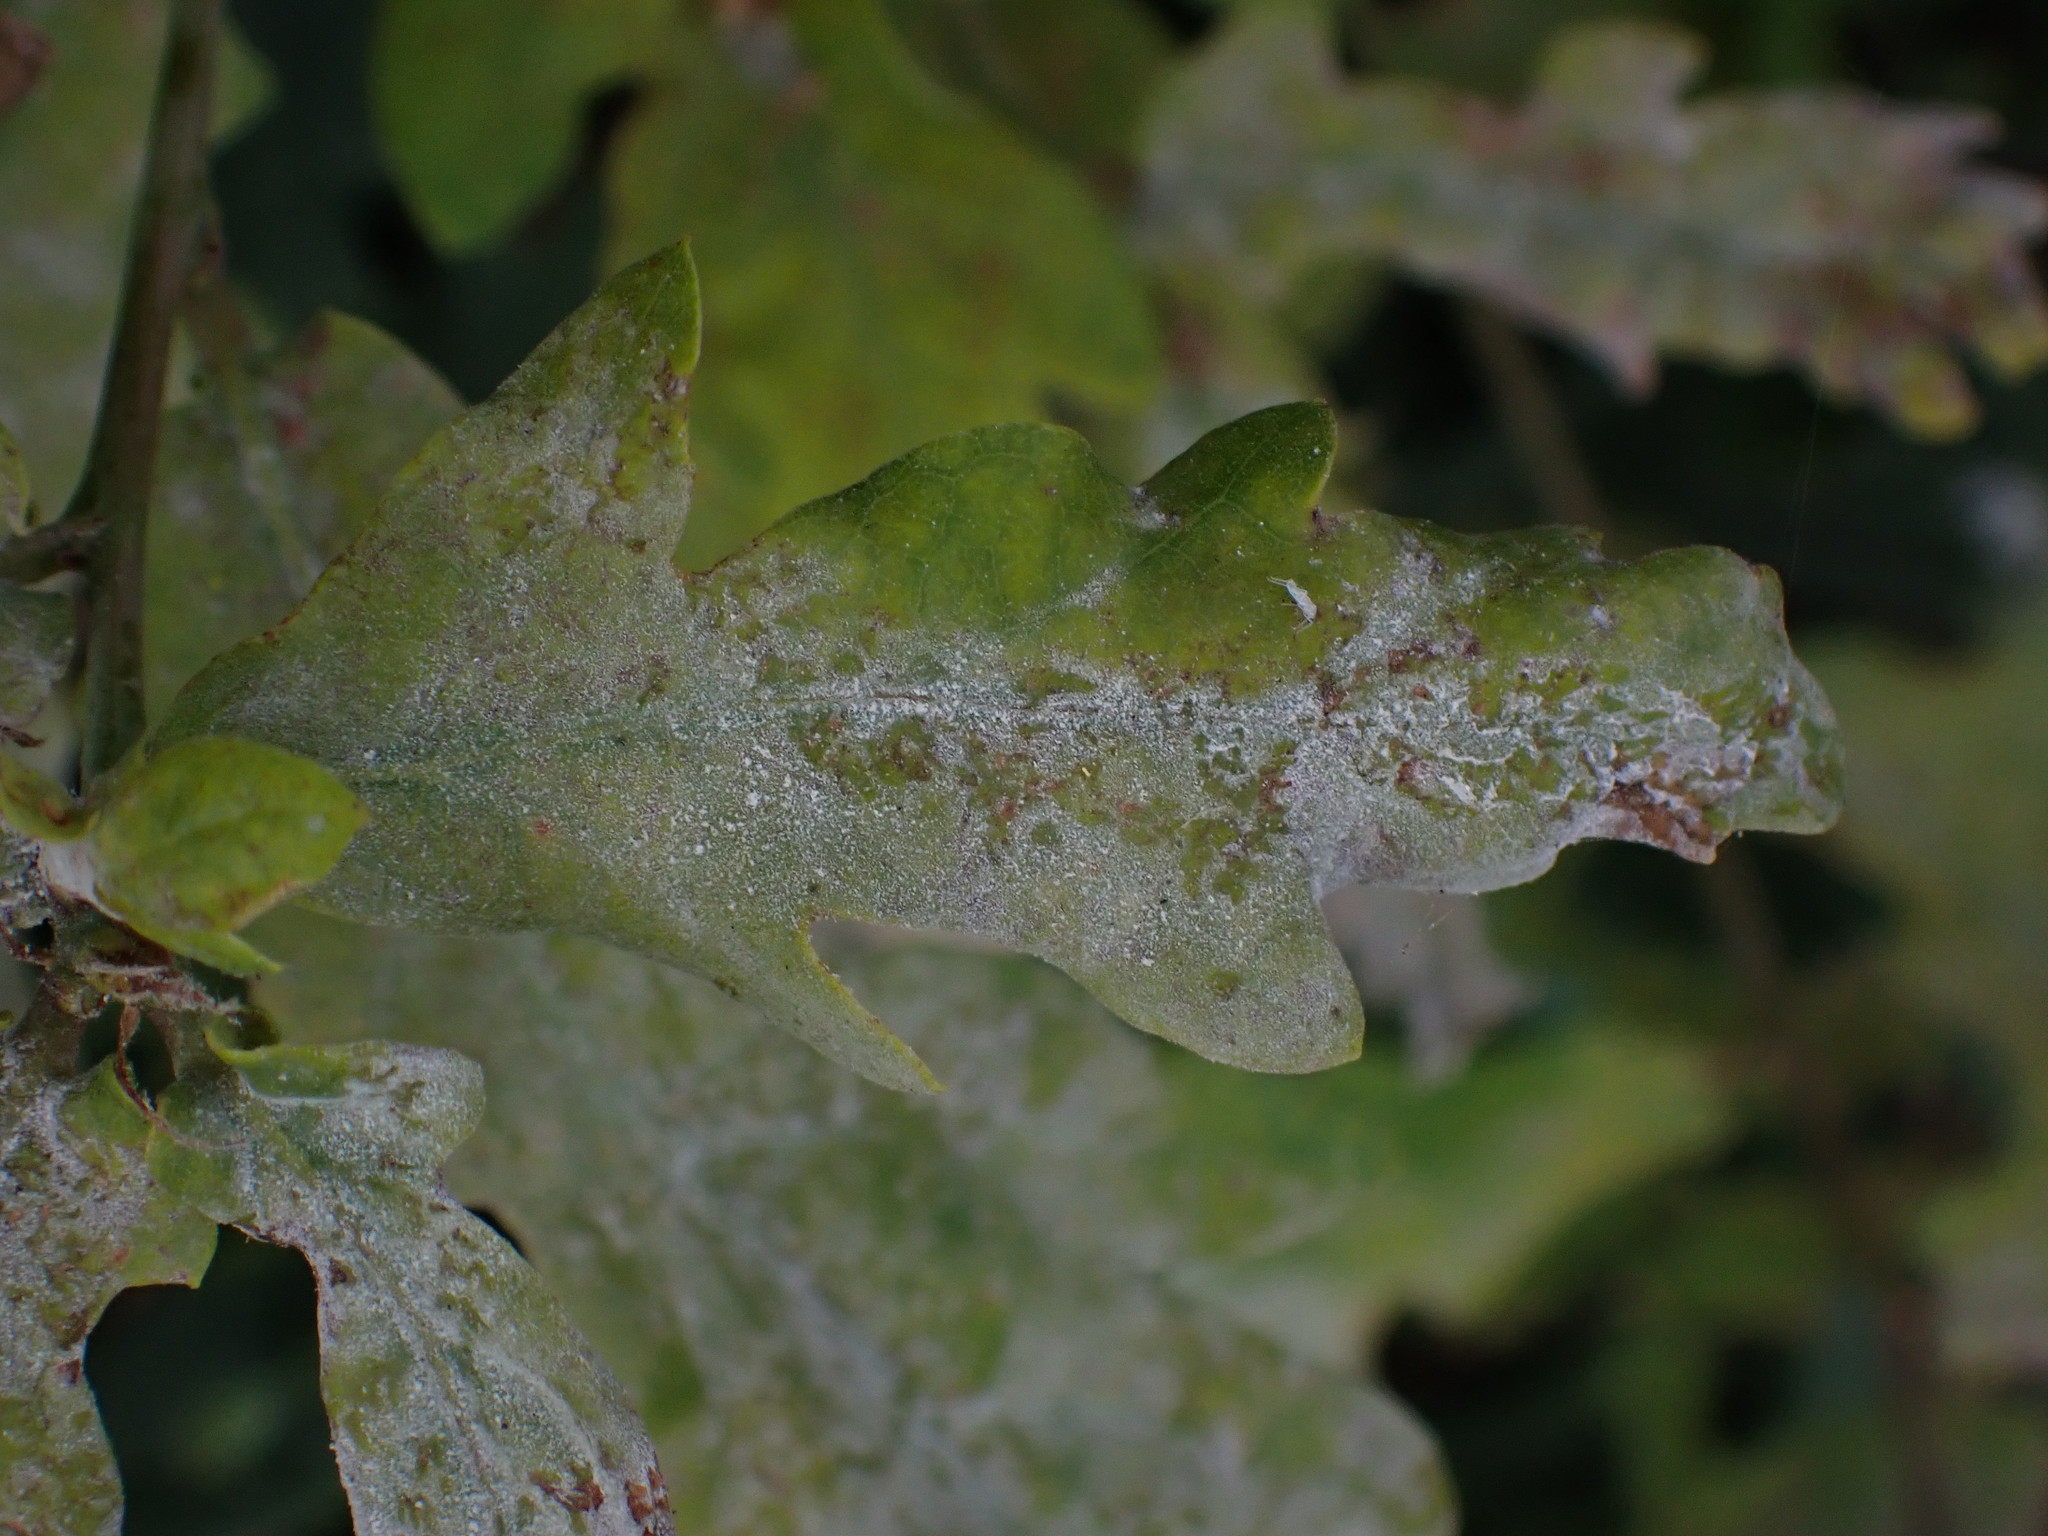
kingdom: Fungi
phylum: Ascomycota
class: Leotiomycetes
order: Helotiales
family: Erysiphaceae
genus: Erysiphe
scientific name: Erysiphe alphitoides
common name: Oak mildew
